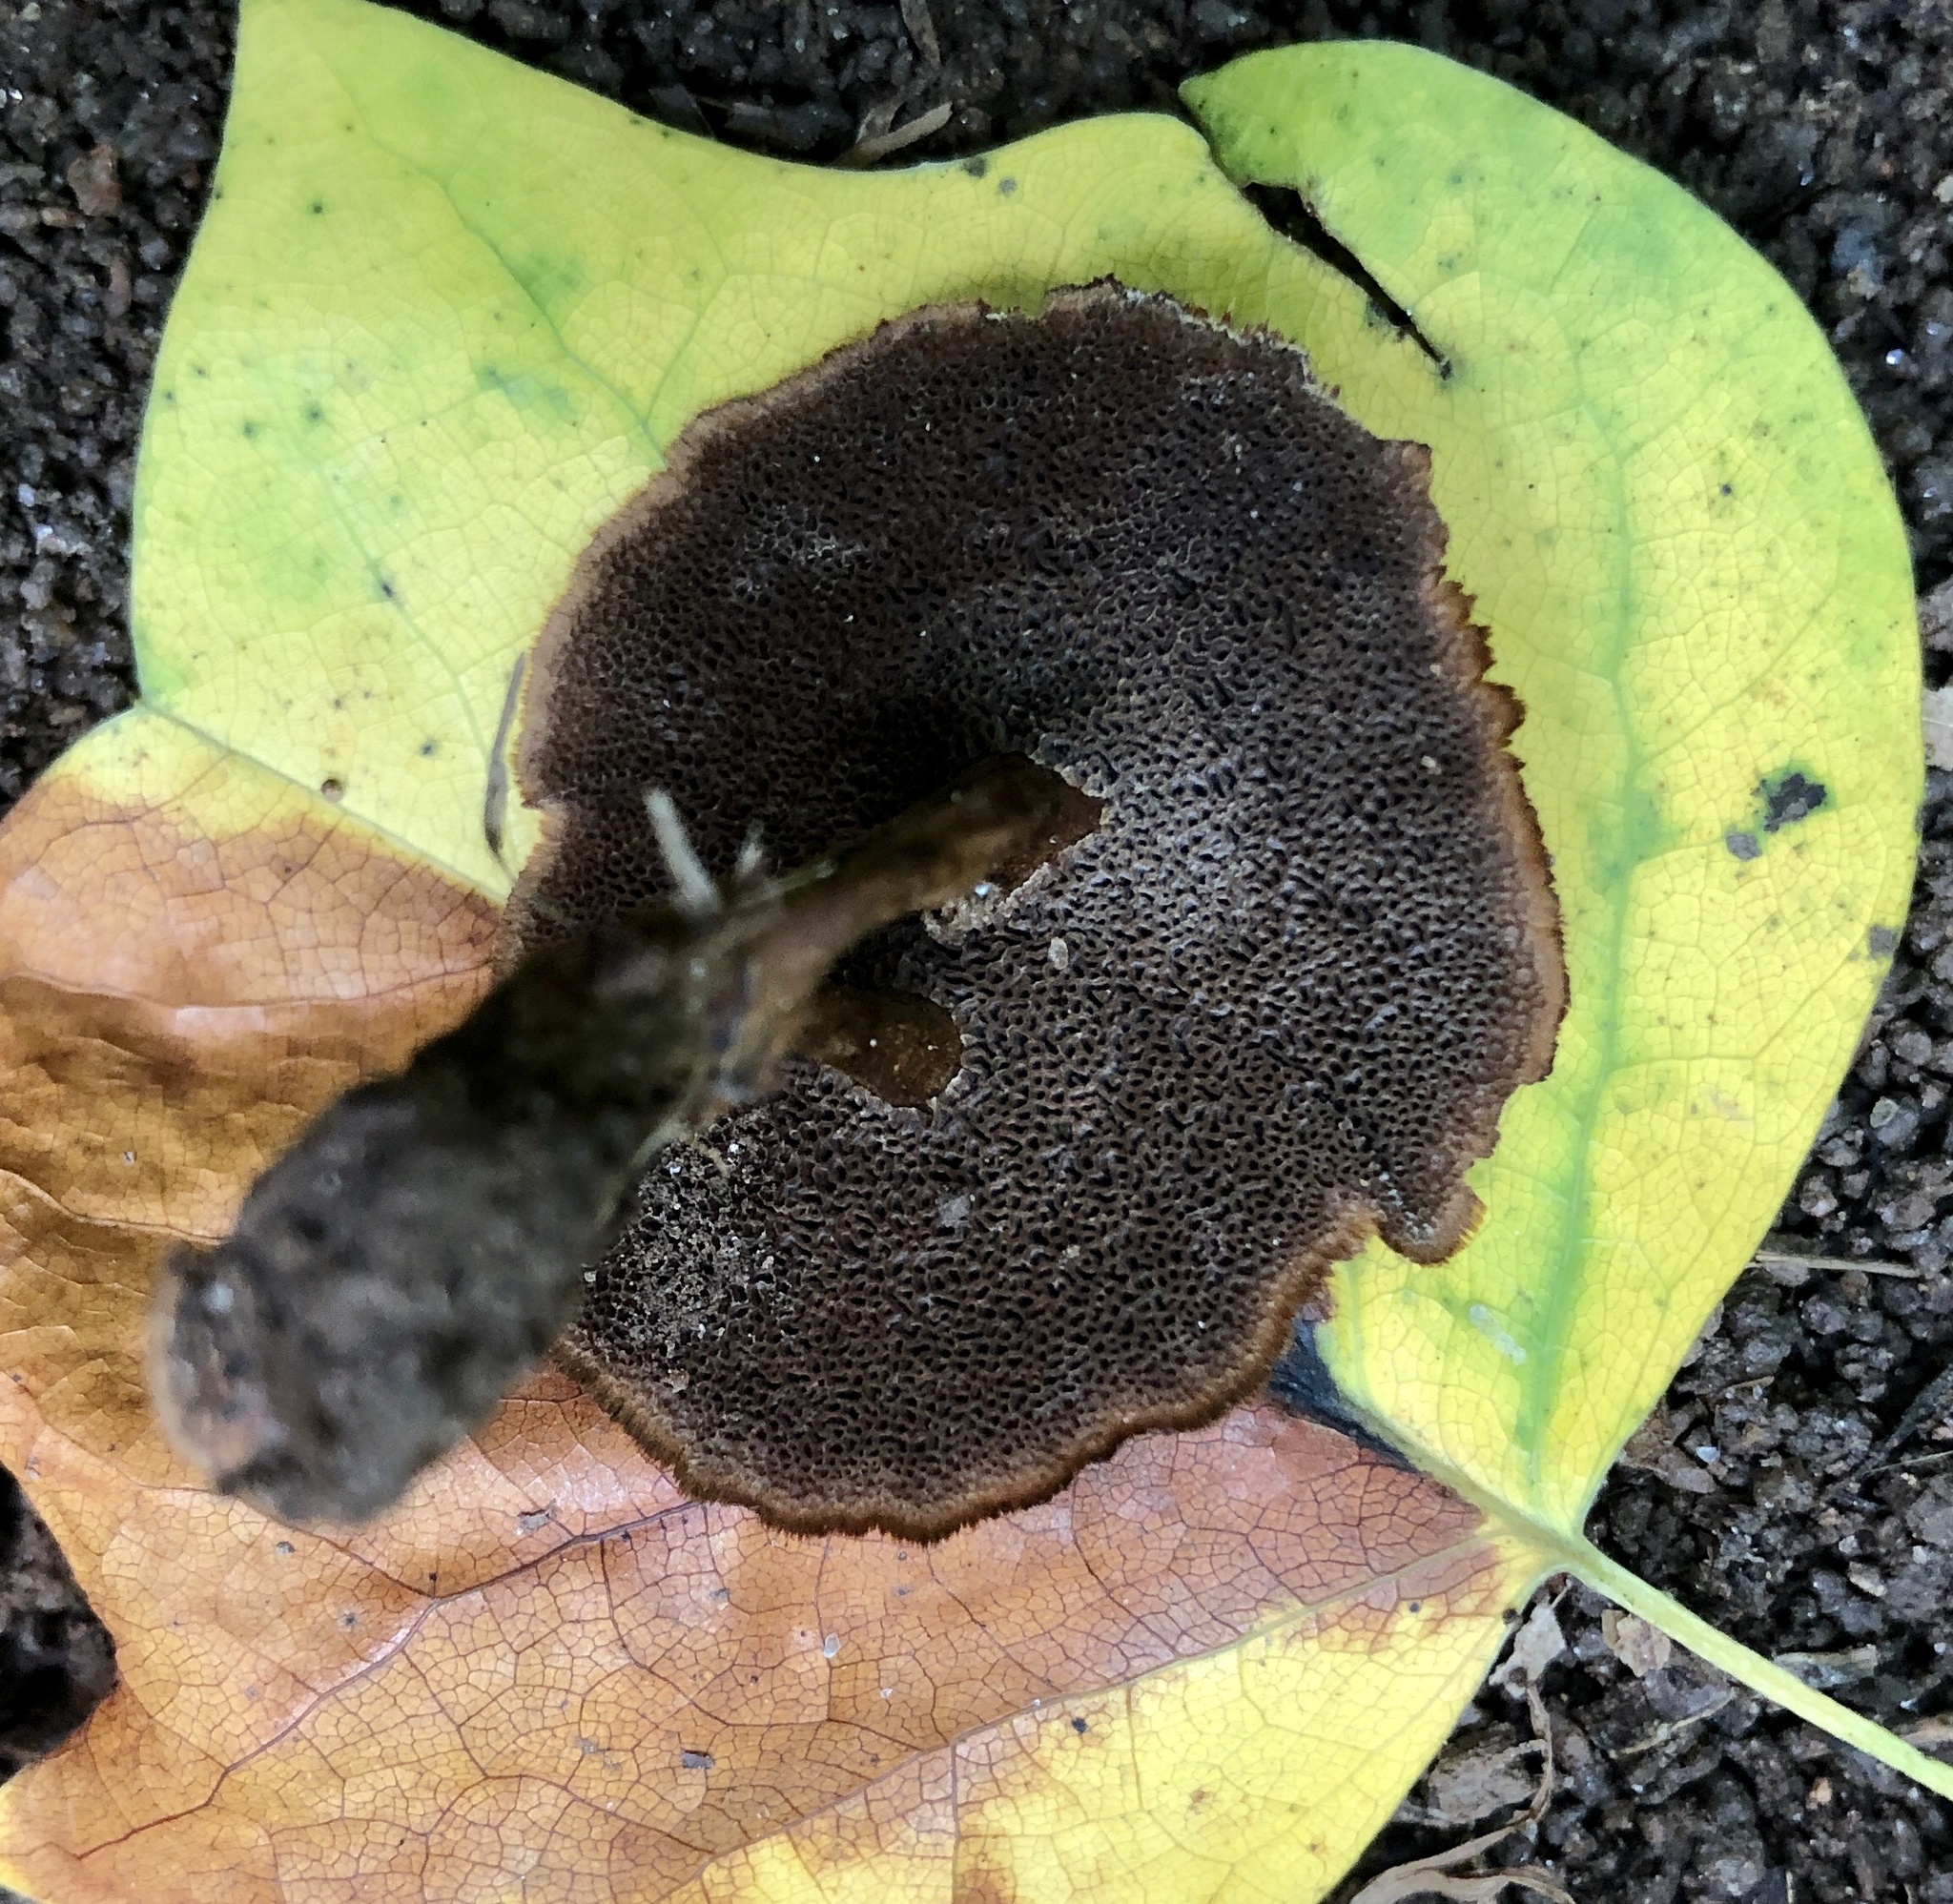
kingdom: Fungi
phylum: Basidiomycota
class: Agaricomycetes
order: Hymenochaetales
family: Hymenochaetaceae
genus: Coltricia
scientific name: Coltricia cinnamomea
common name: Shiny cinnamon polypore
